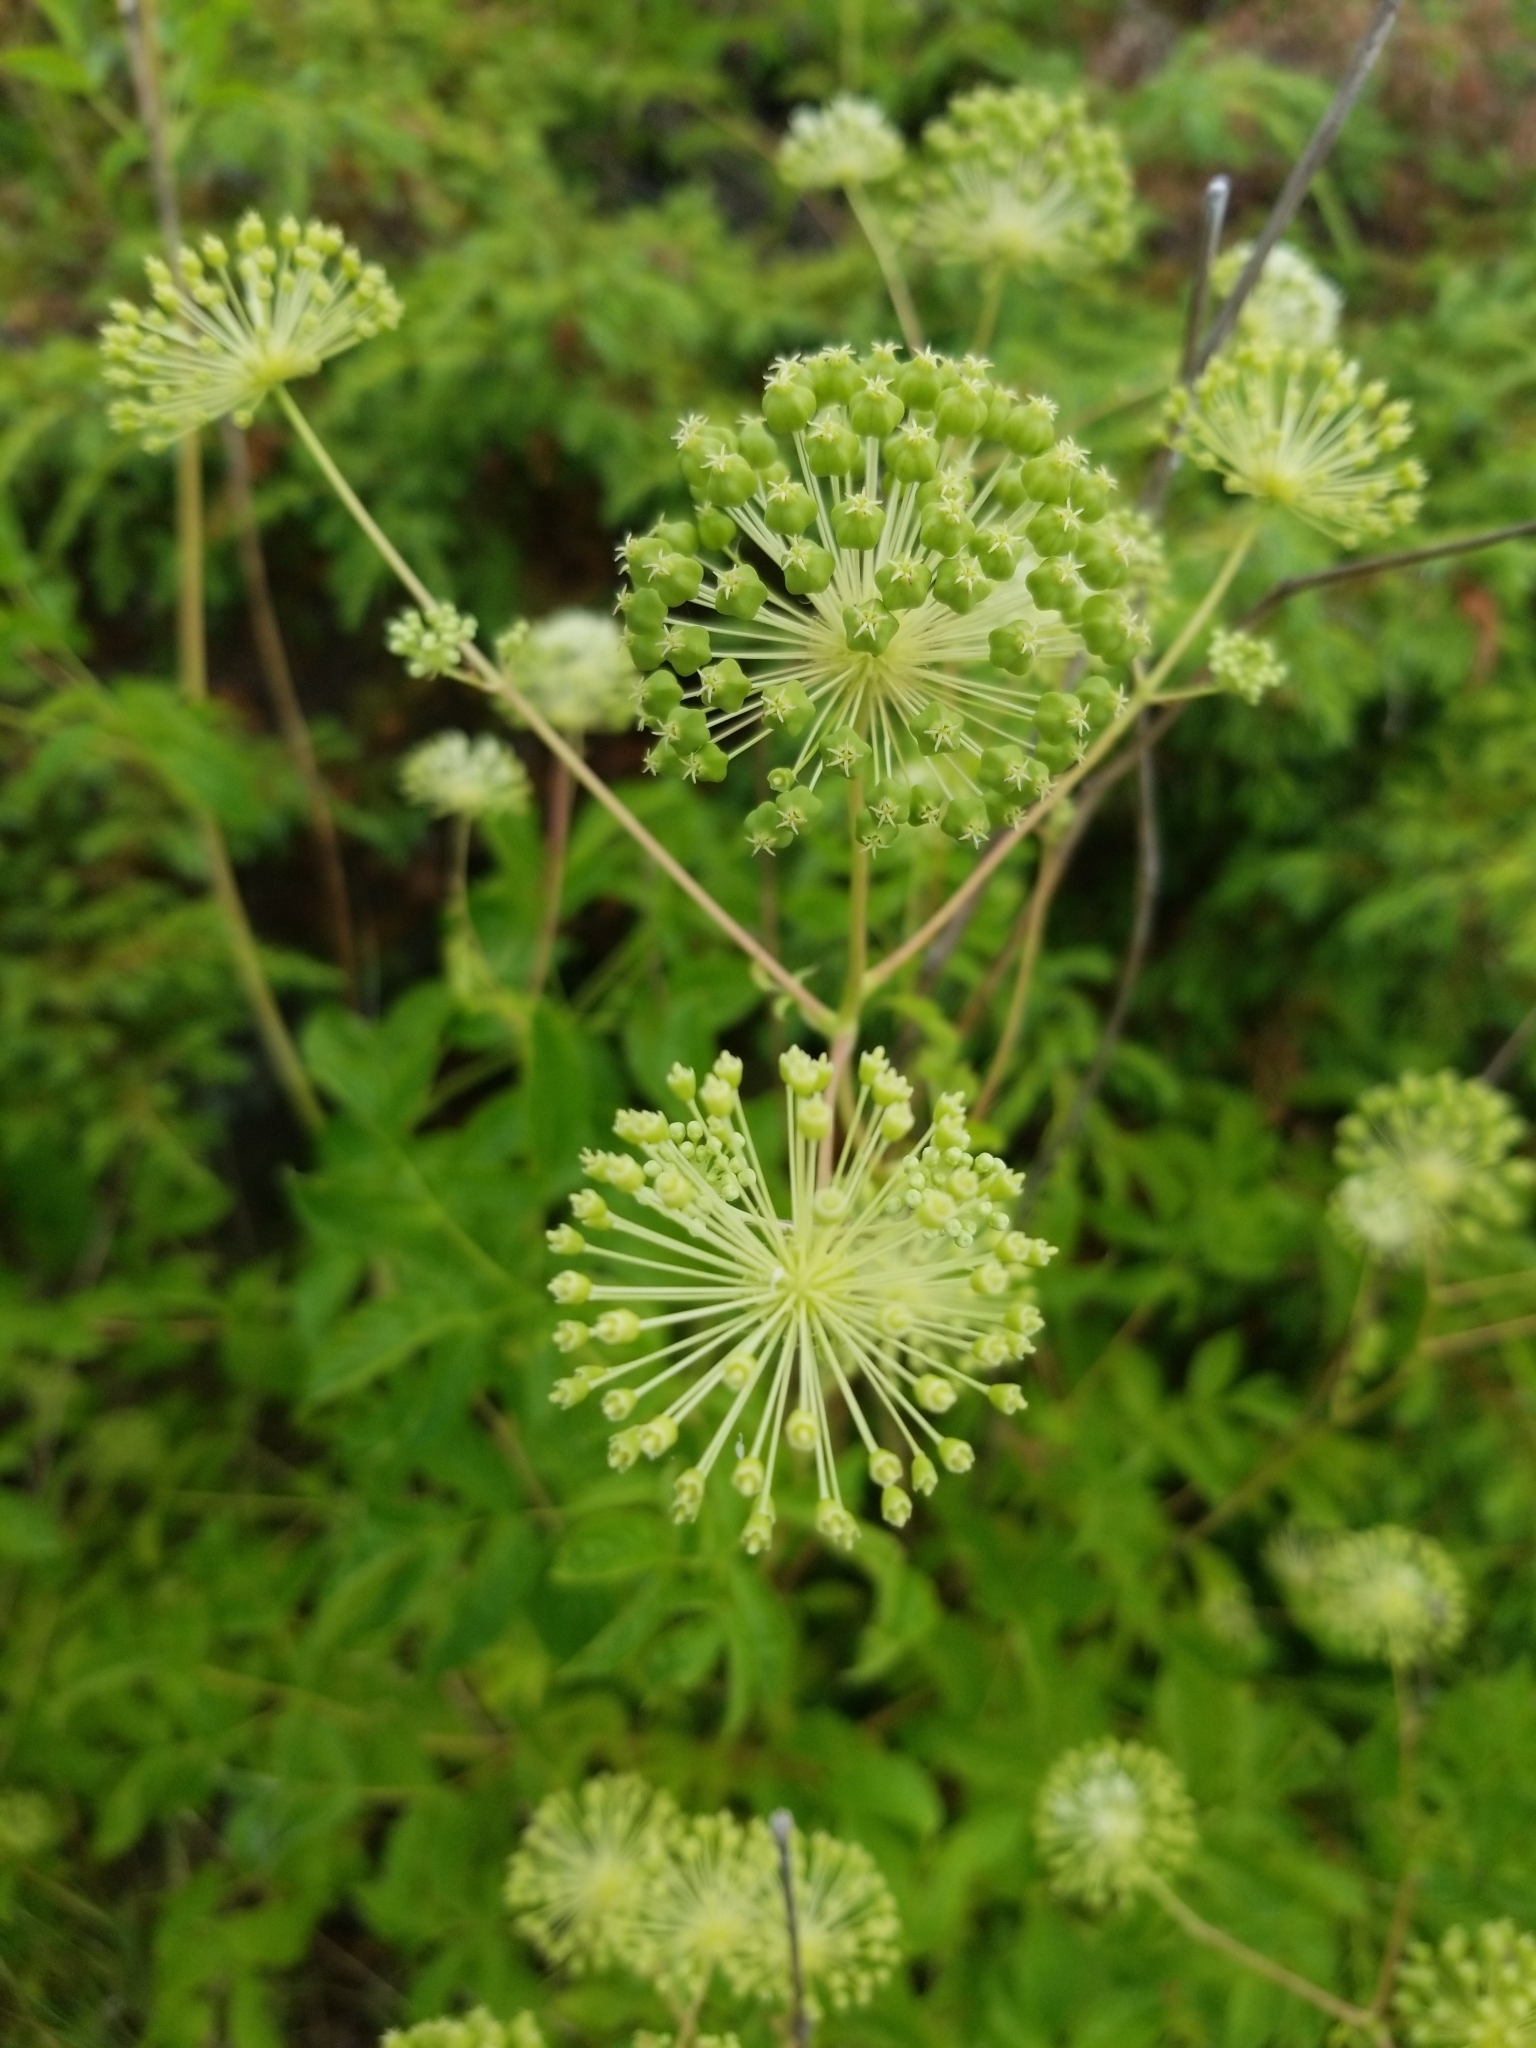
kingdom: Plantae
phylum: Tracheophyta
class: Magnoliopsida
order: Apiales
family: Araliaceae
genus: Aralia
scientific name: Aralia hispida
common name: Bristly sarsaparilla
